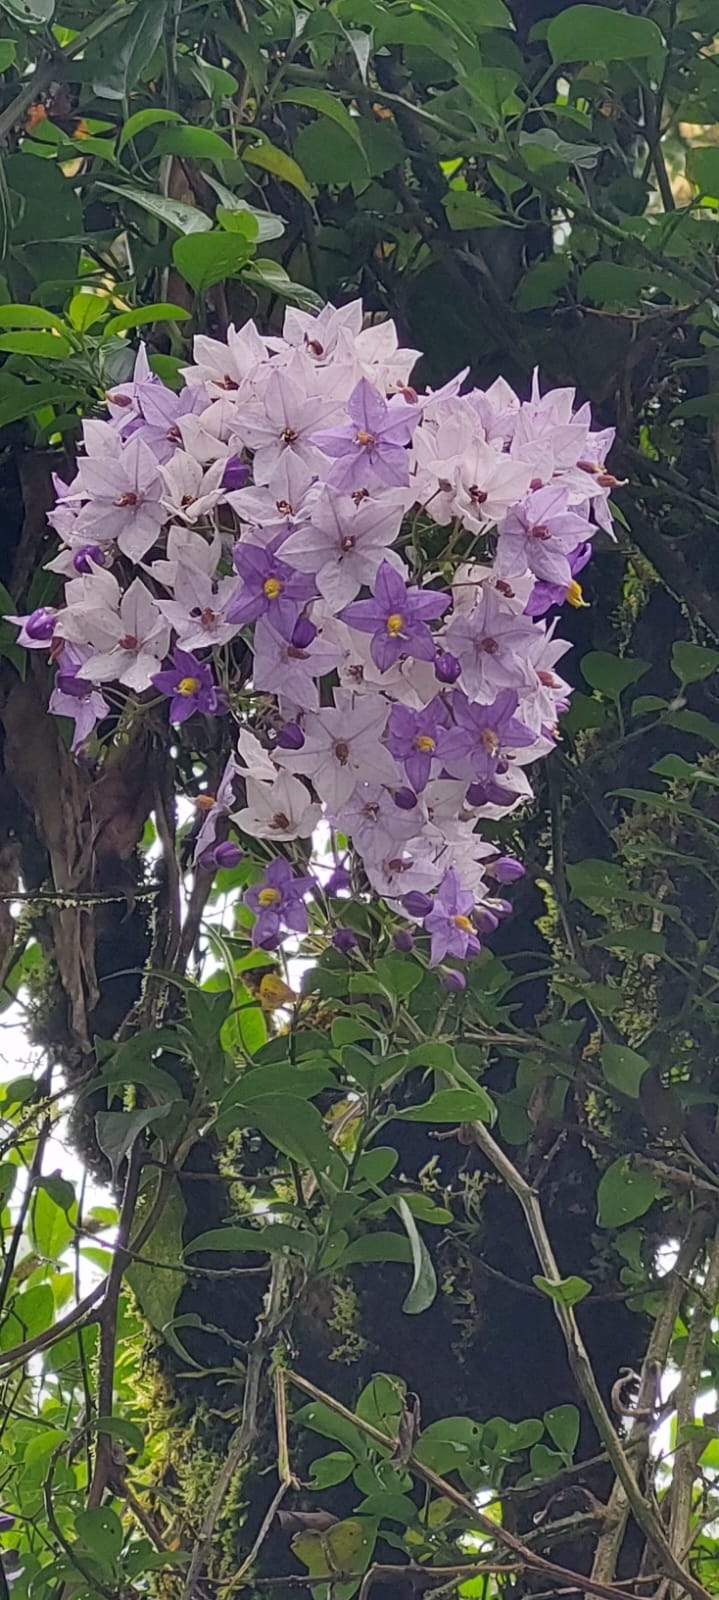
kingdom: Plantae
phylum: Tracheophyta
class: Magnoliopsida
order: Solanales
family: Solanaceae
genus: Solanum
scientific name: Solanum flaccidum
